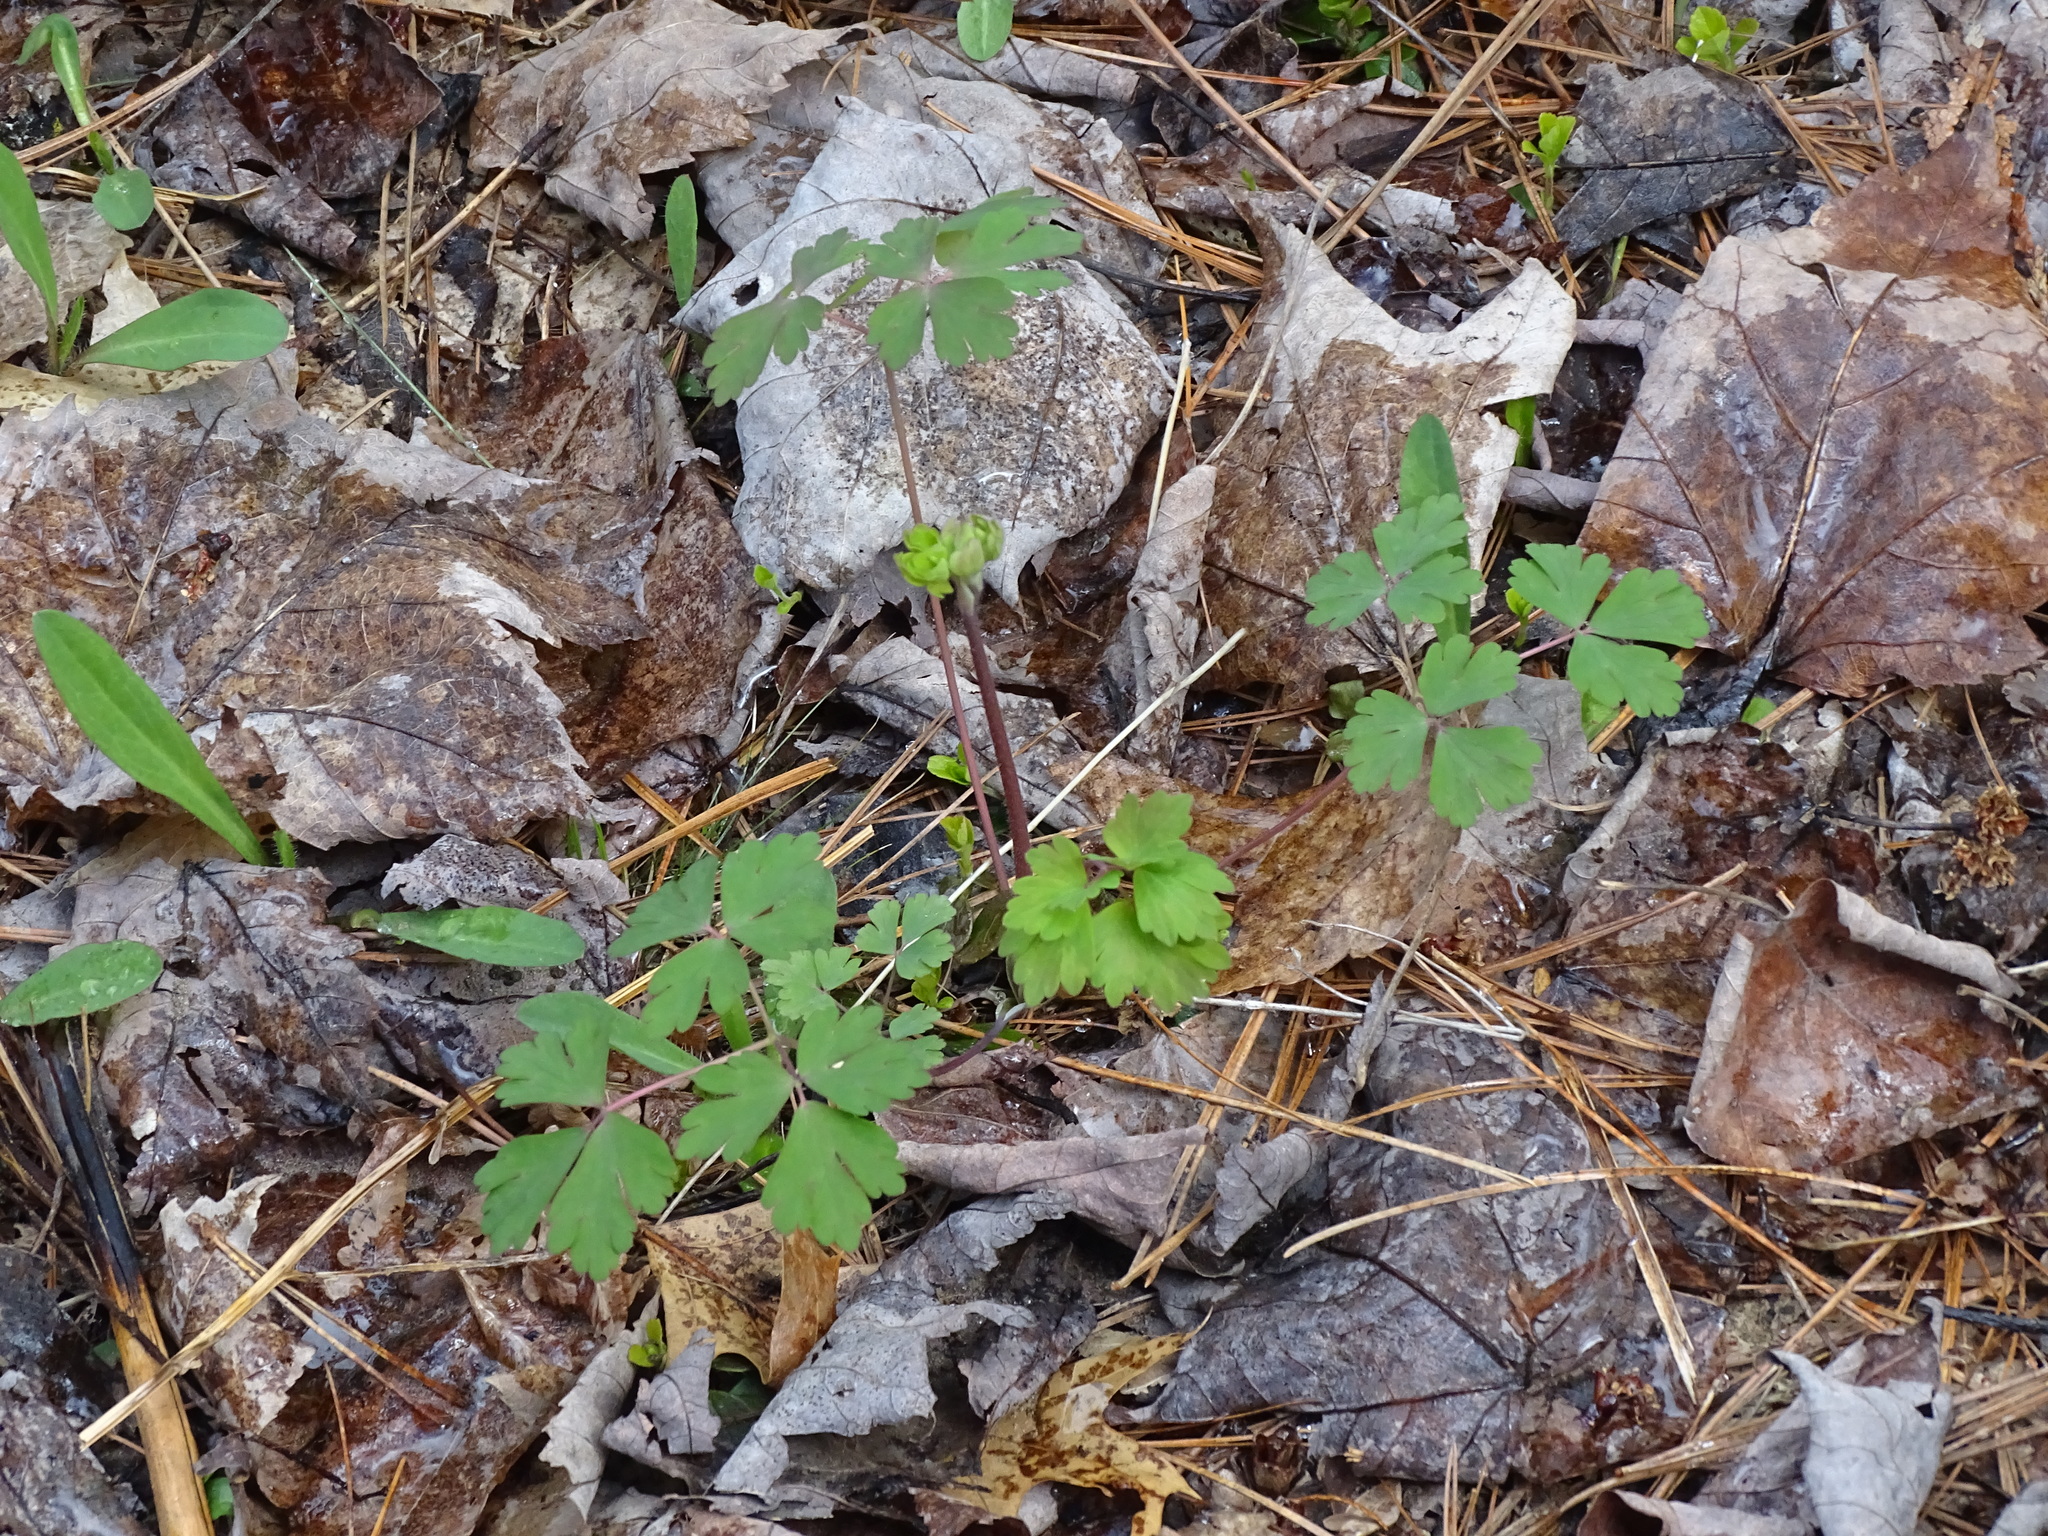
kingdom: Plantae
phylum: Tracheophyta
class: Magnoliopsida
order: Ranunculales
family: Ranunculaceae
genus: Aquilegia
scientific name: Aquilegia canadensis
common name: American columbine
